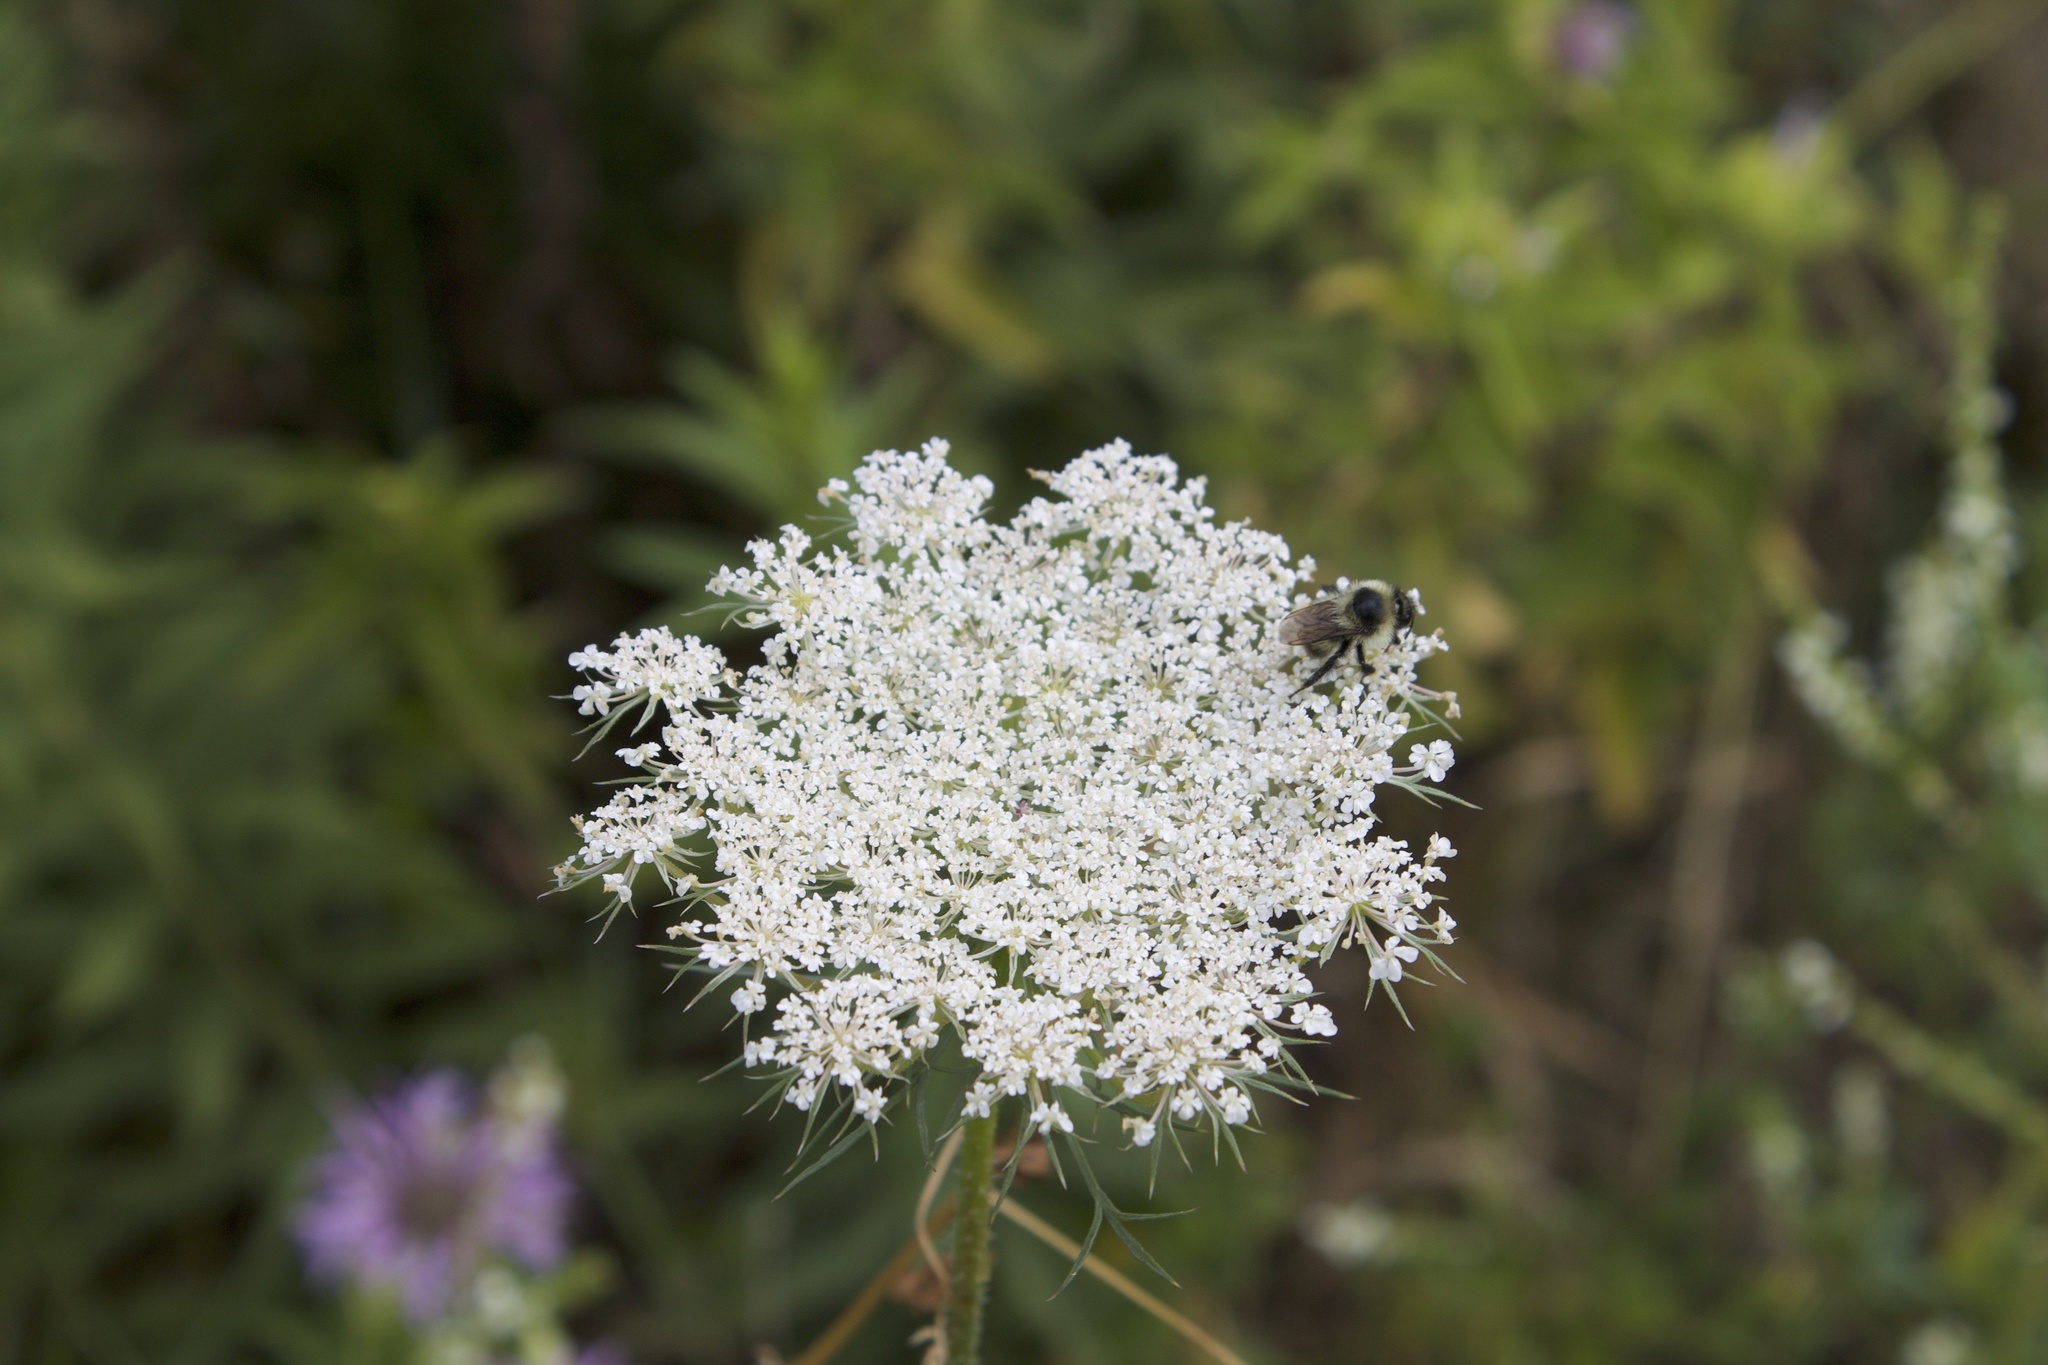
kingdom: Animalia
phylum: Arthropoda
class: Insecta
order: Hymenoptera
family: Apidae
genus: Bombus
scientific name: Bombus rufocinctus
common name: Red-belted bumble bee
